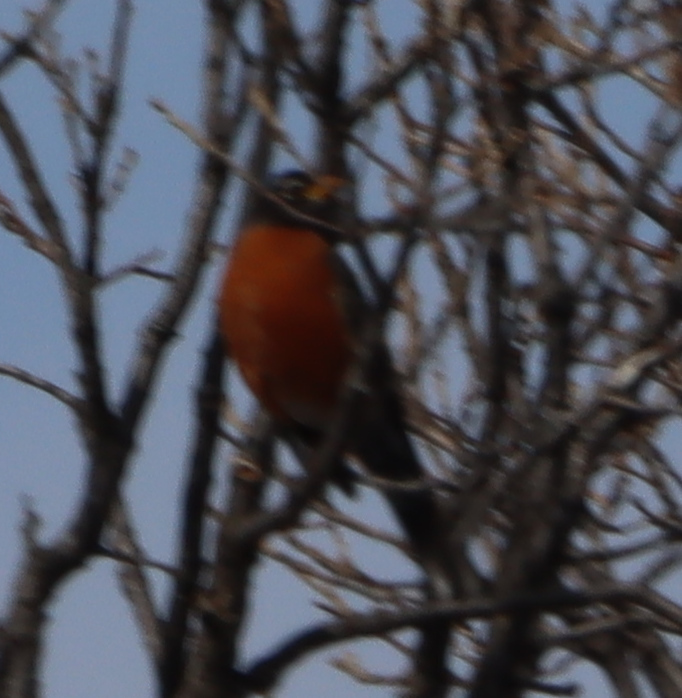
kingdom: Animalia
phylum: Chordata
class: Aves
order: Passeriformes
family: Turdidae
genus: Turdus
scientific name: Turdus migratorius
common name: American robin
